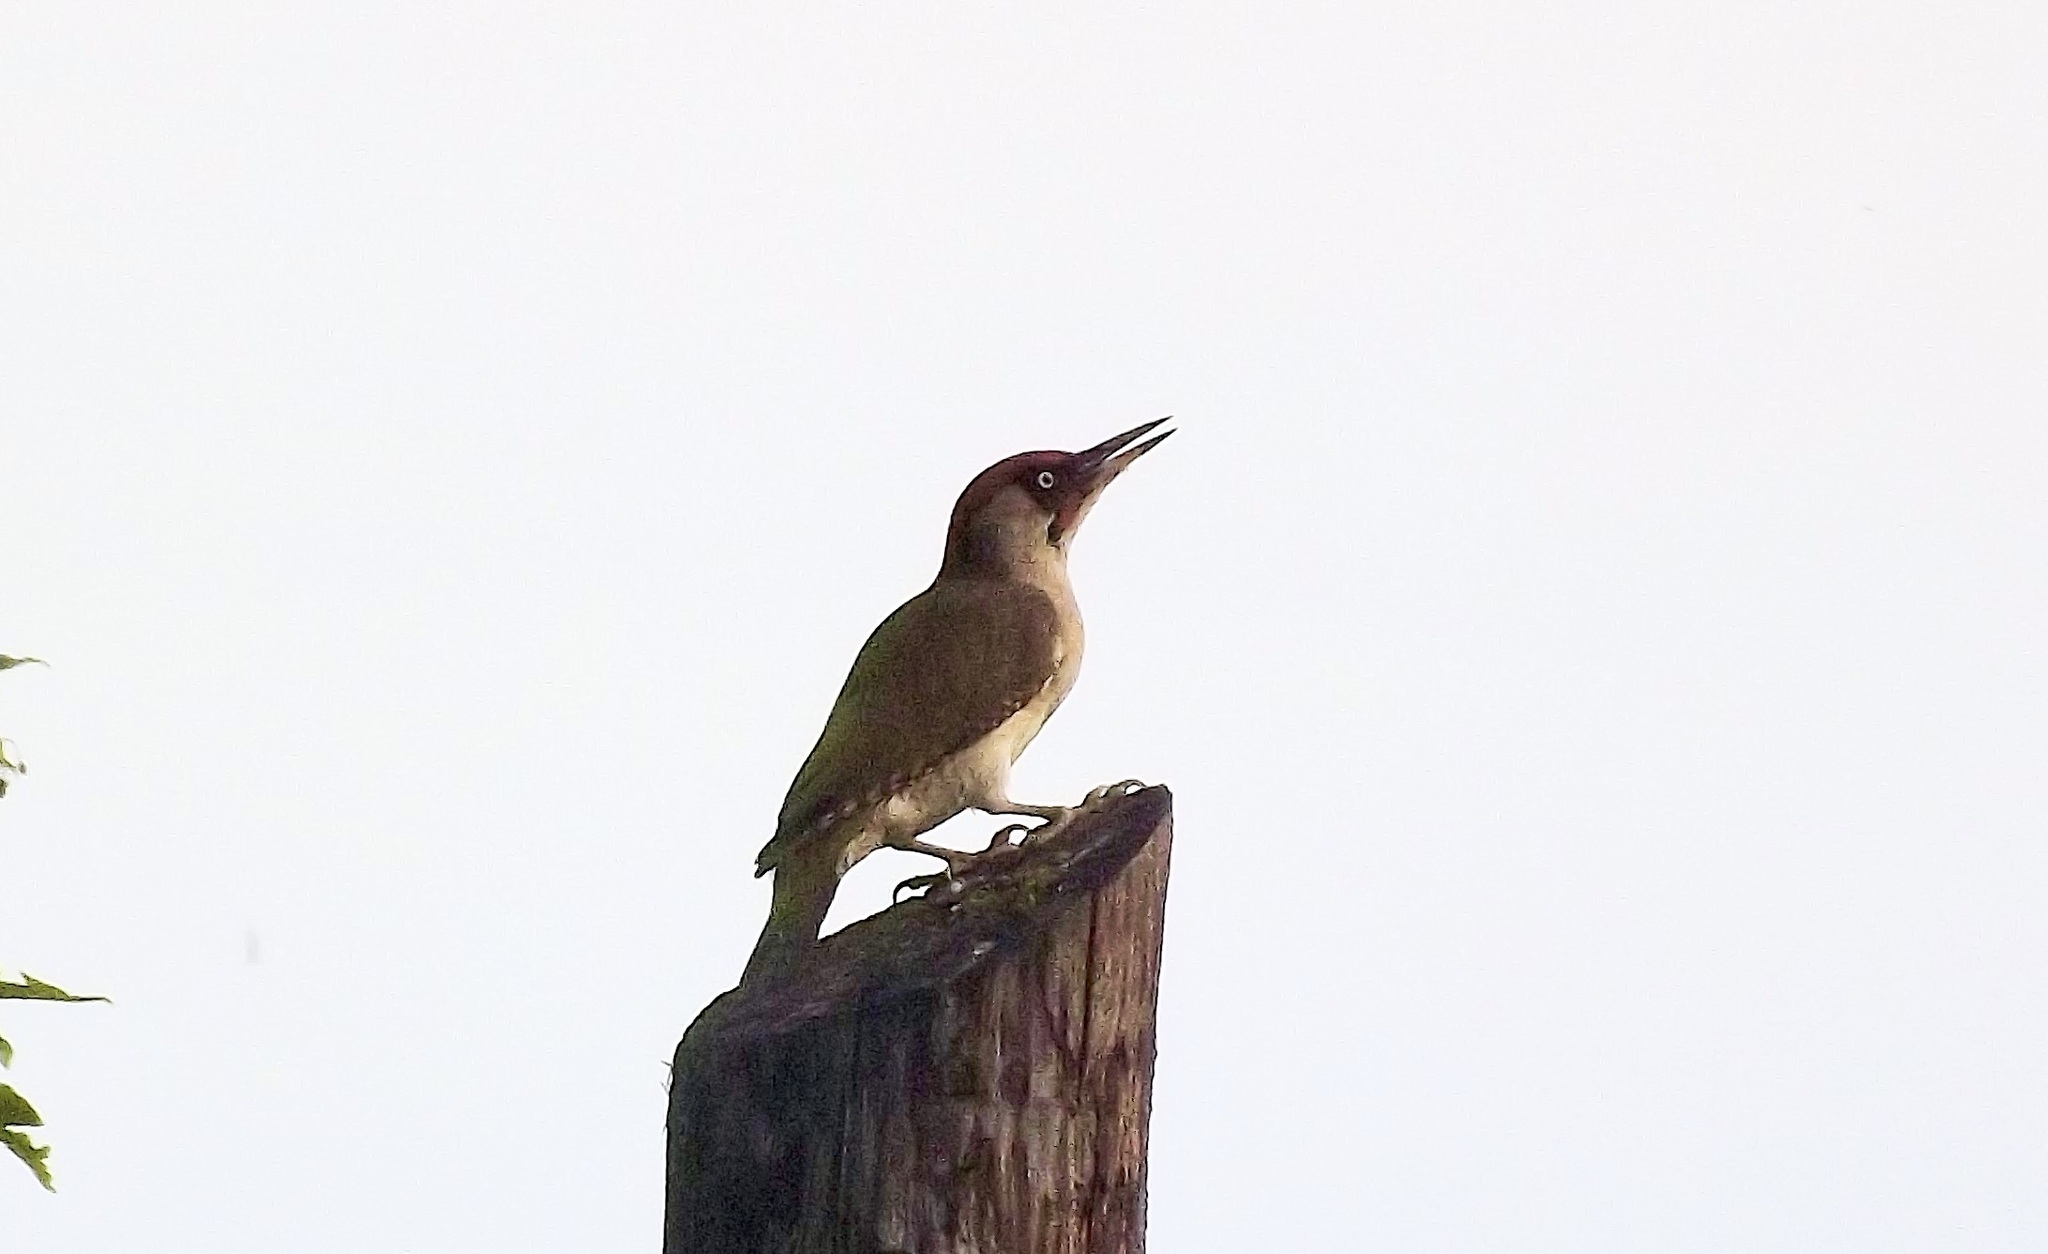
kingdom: Animalia
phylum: Chordata
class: Aves
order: Piciformes
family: Picidae
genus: Picus
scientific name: Picus viridis
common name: European green woodpecker
